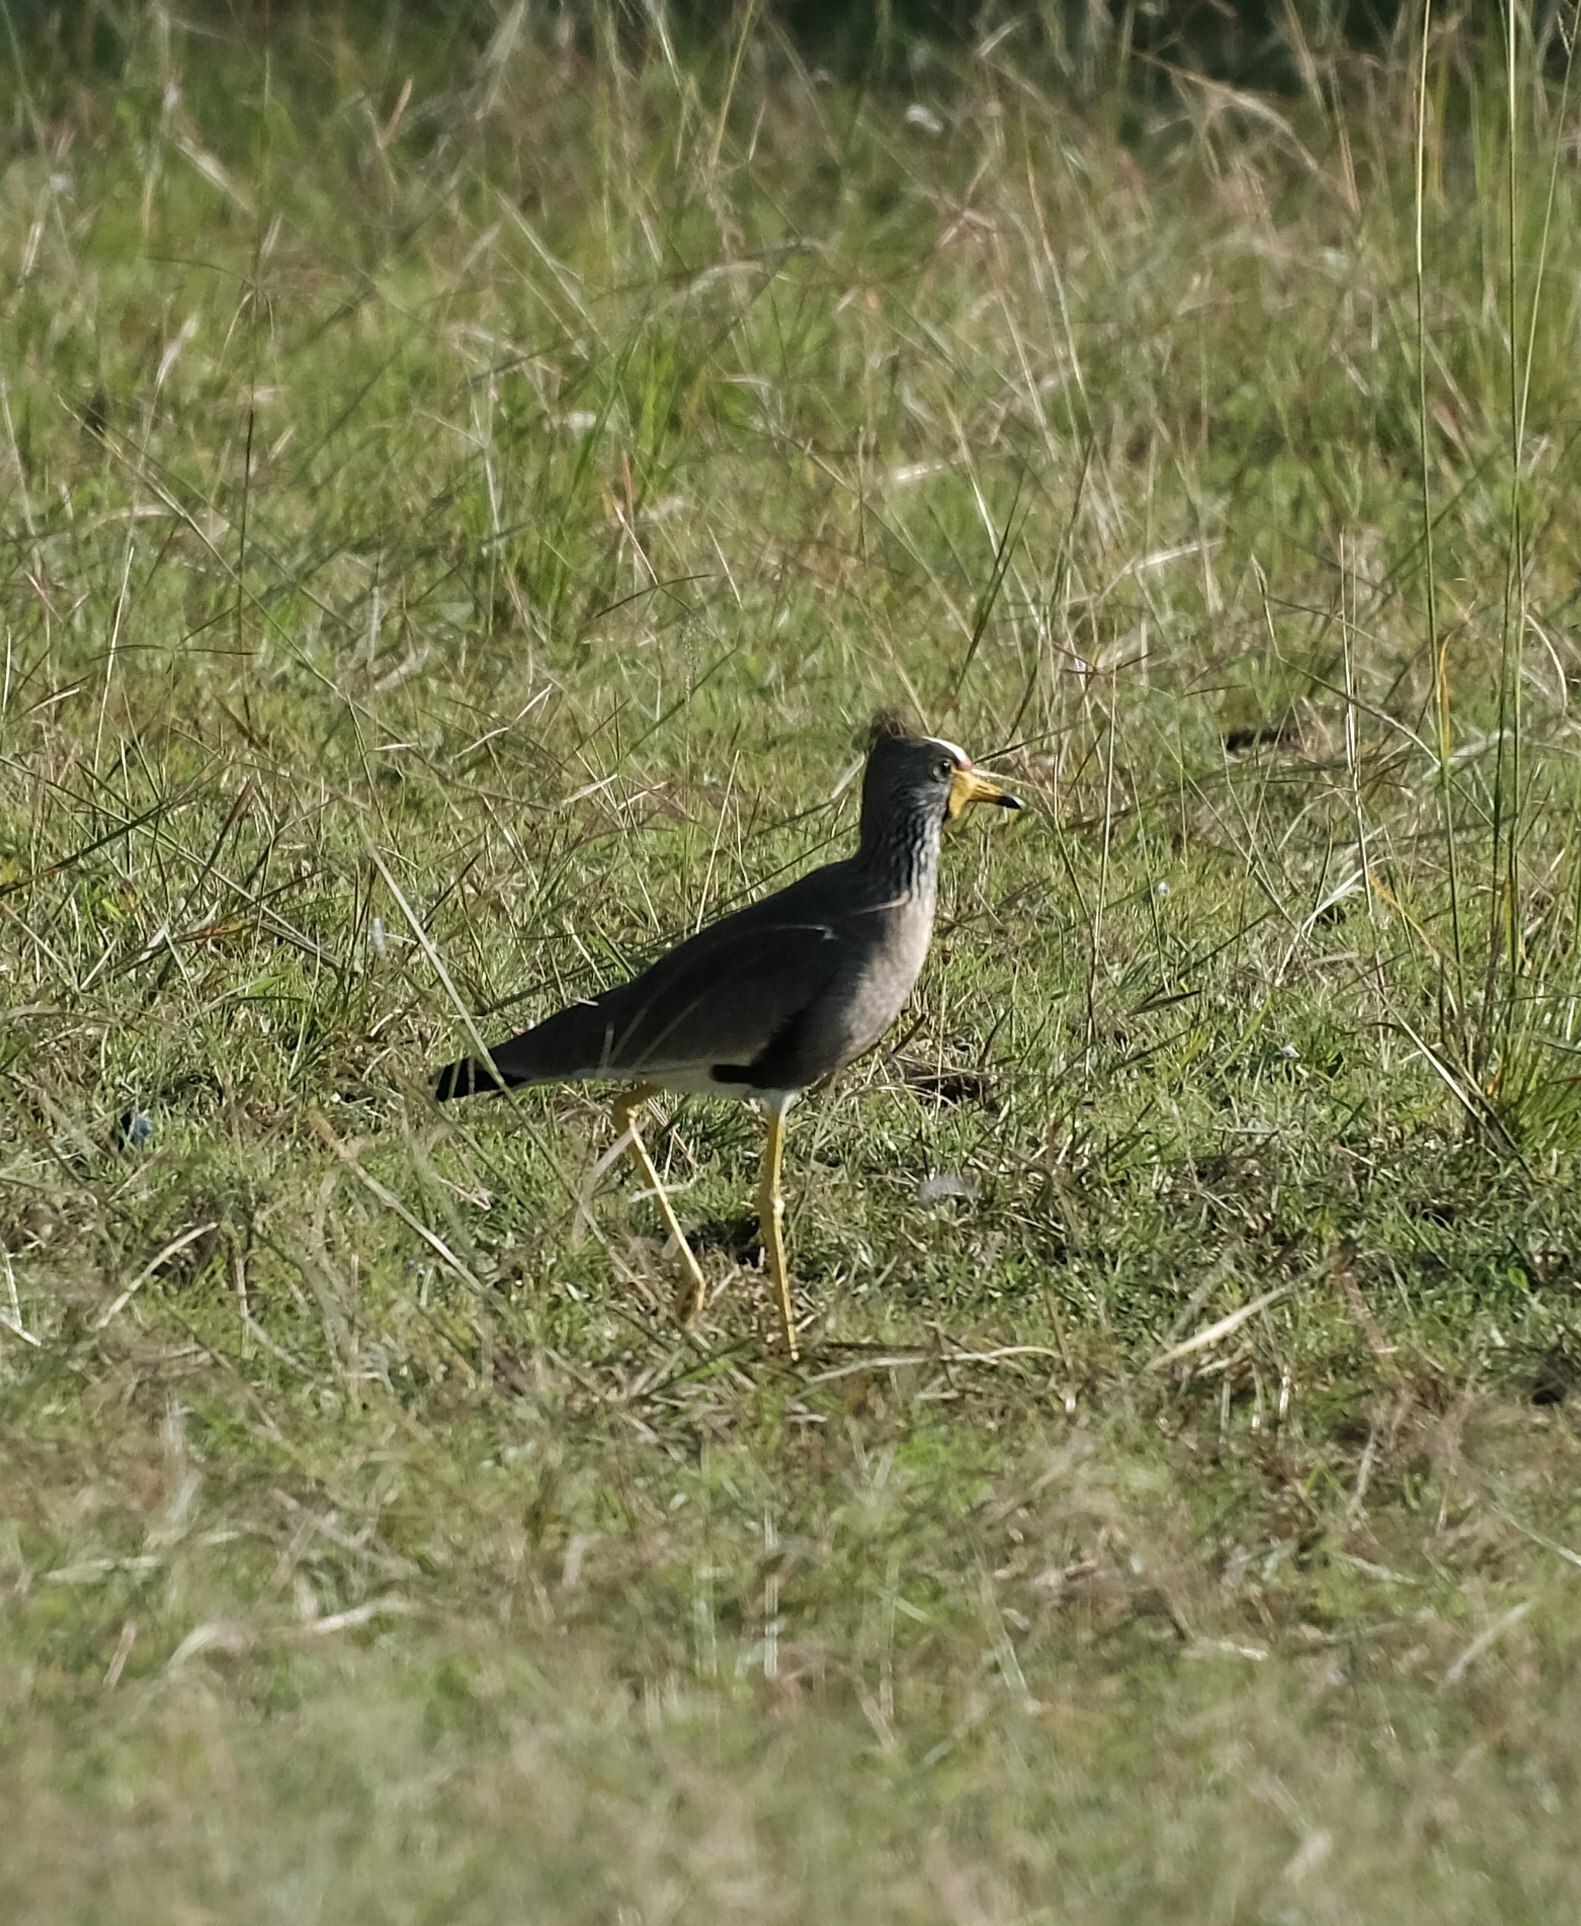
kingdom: Animalia
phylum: Chordata
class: Aves
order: Charadriiformes
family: Charadriidae
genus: Vanellus
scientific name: Vanellus senegallus
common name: African wattled lapwing
